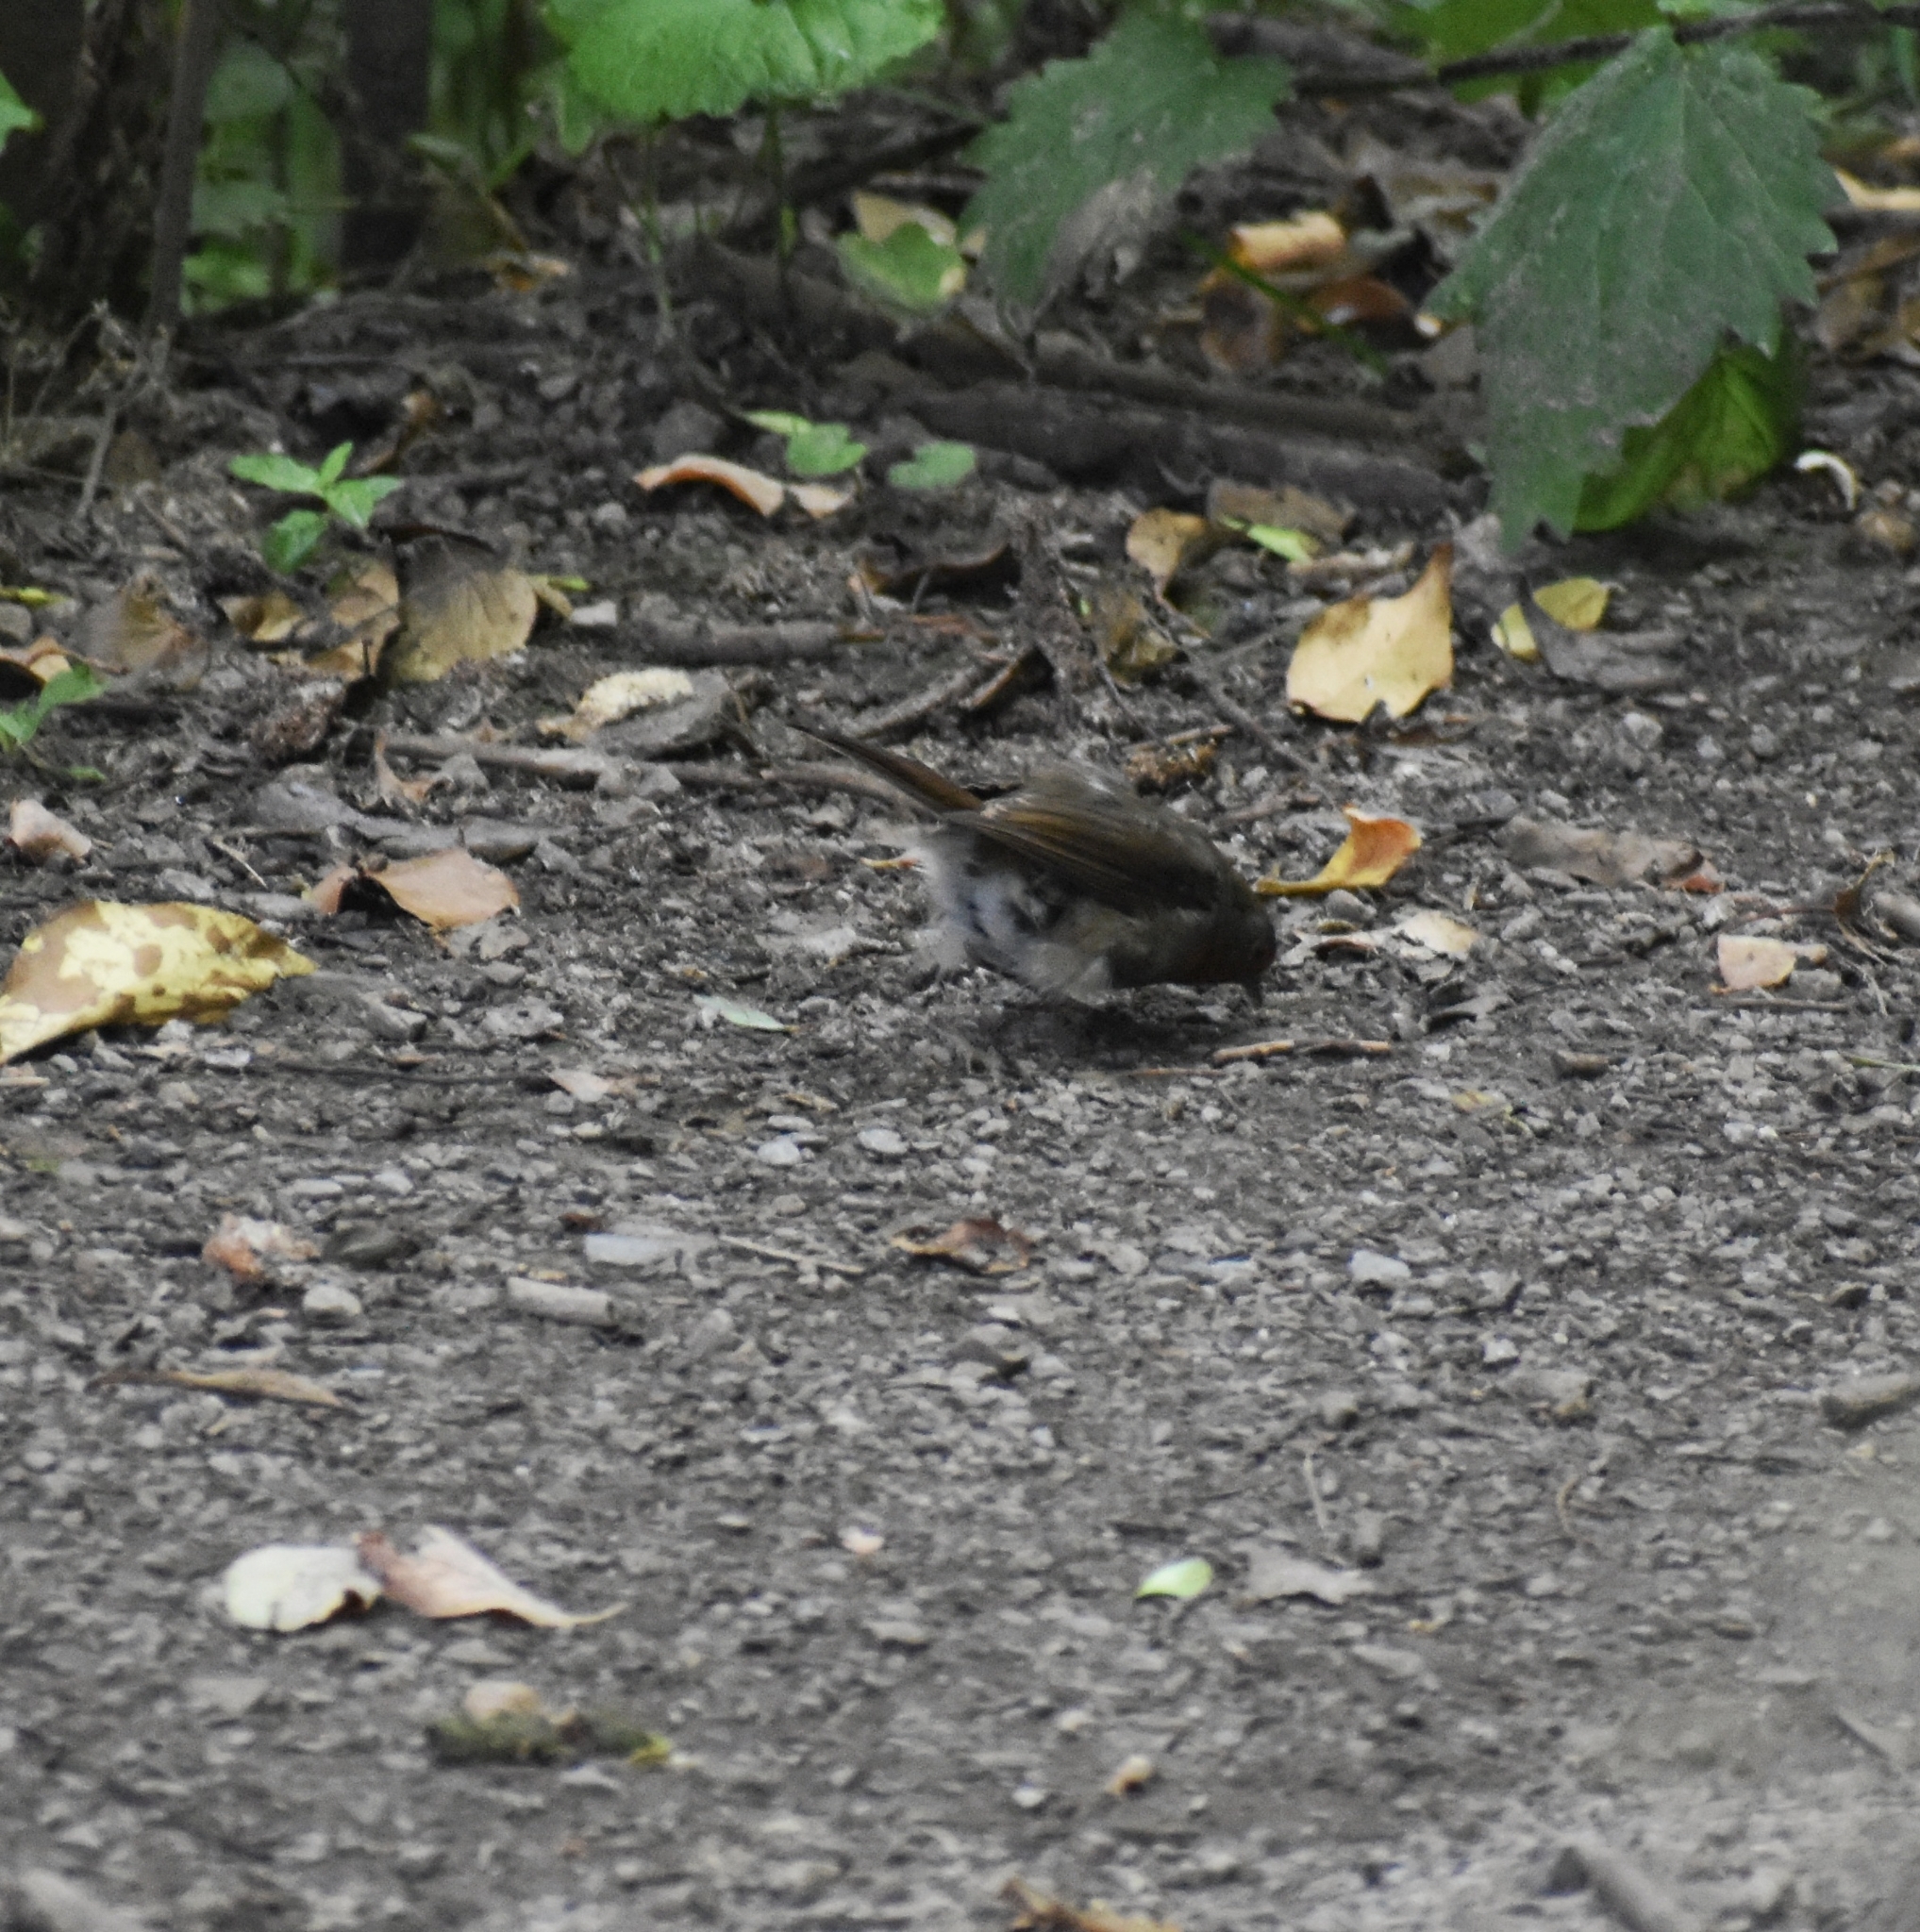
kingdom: Animalia
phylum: Chordata
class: Aves
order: Passeriformes
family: Muscicapidae
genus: Erithacus
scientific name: Erithacus rubecula
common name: European robin
